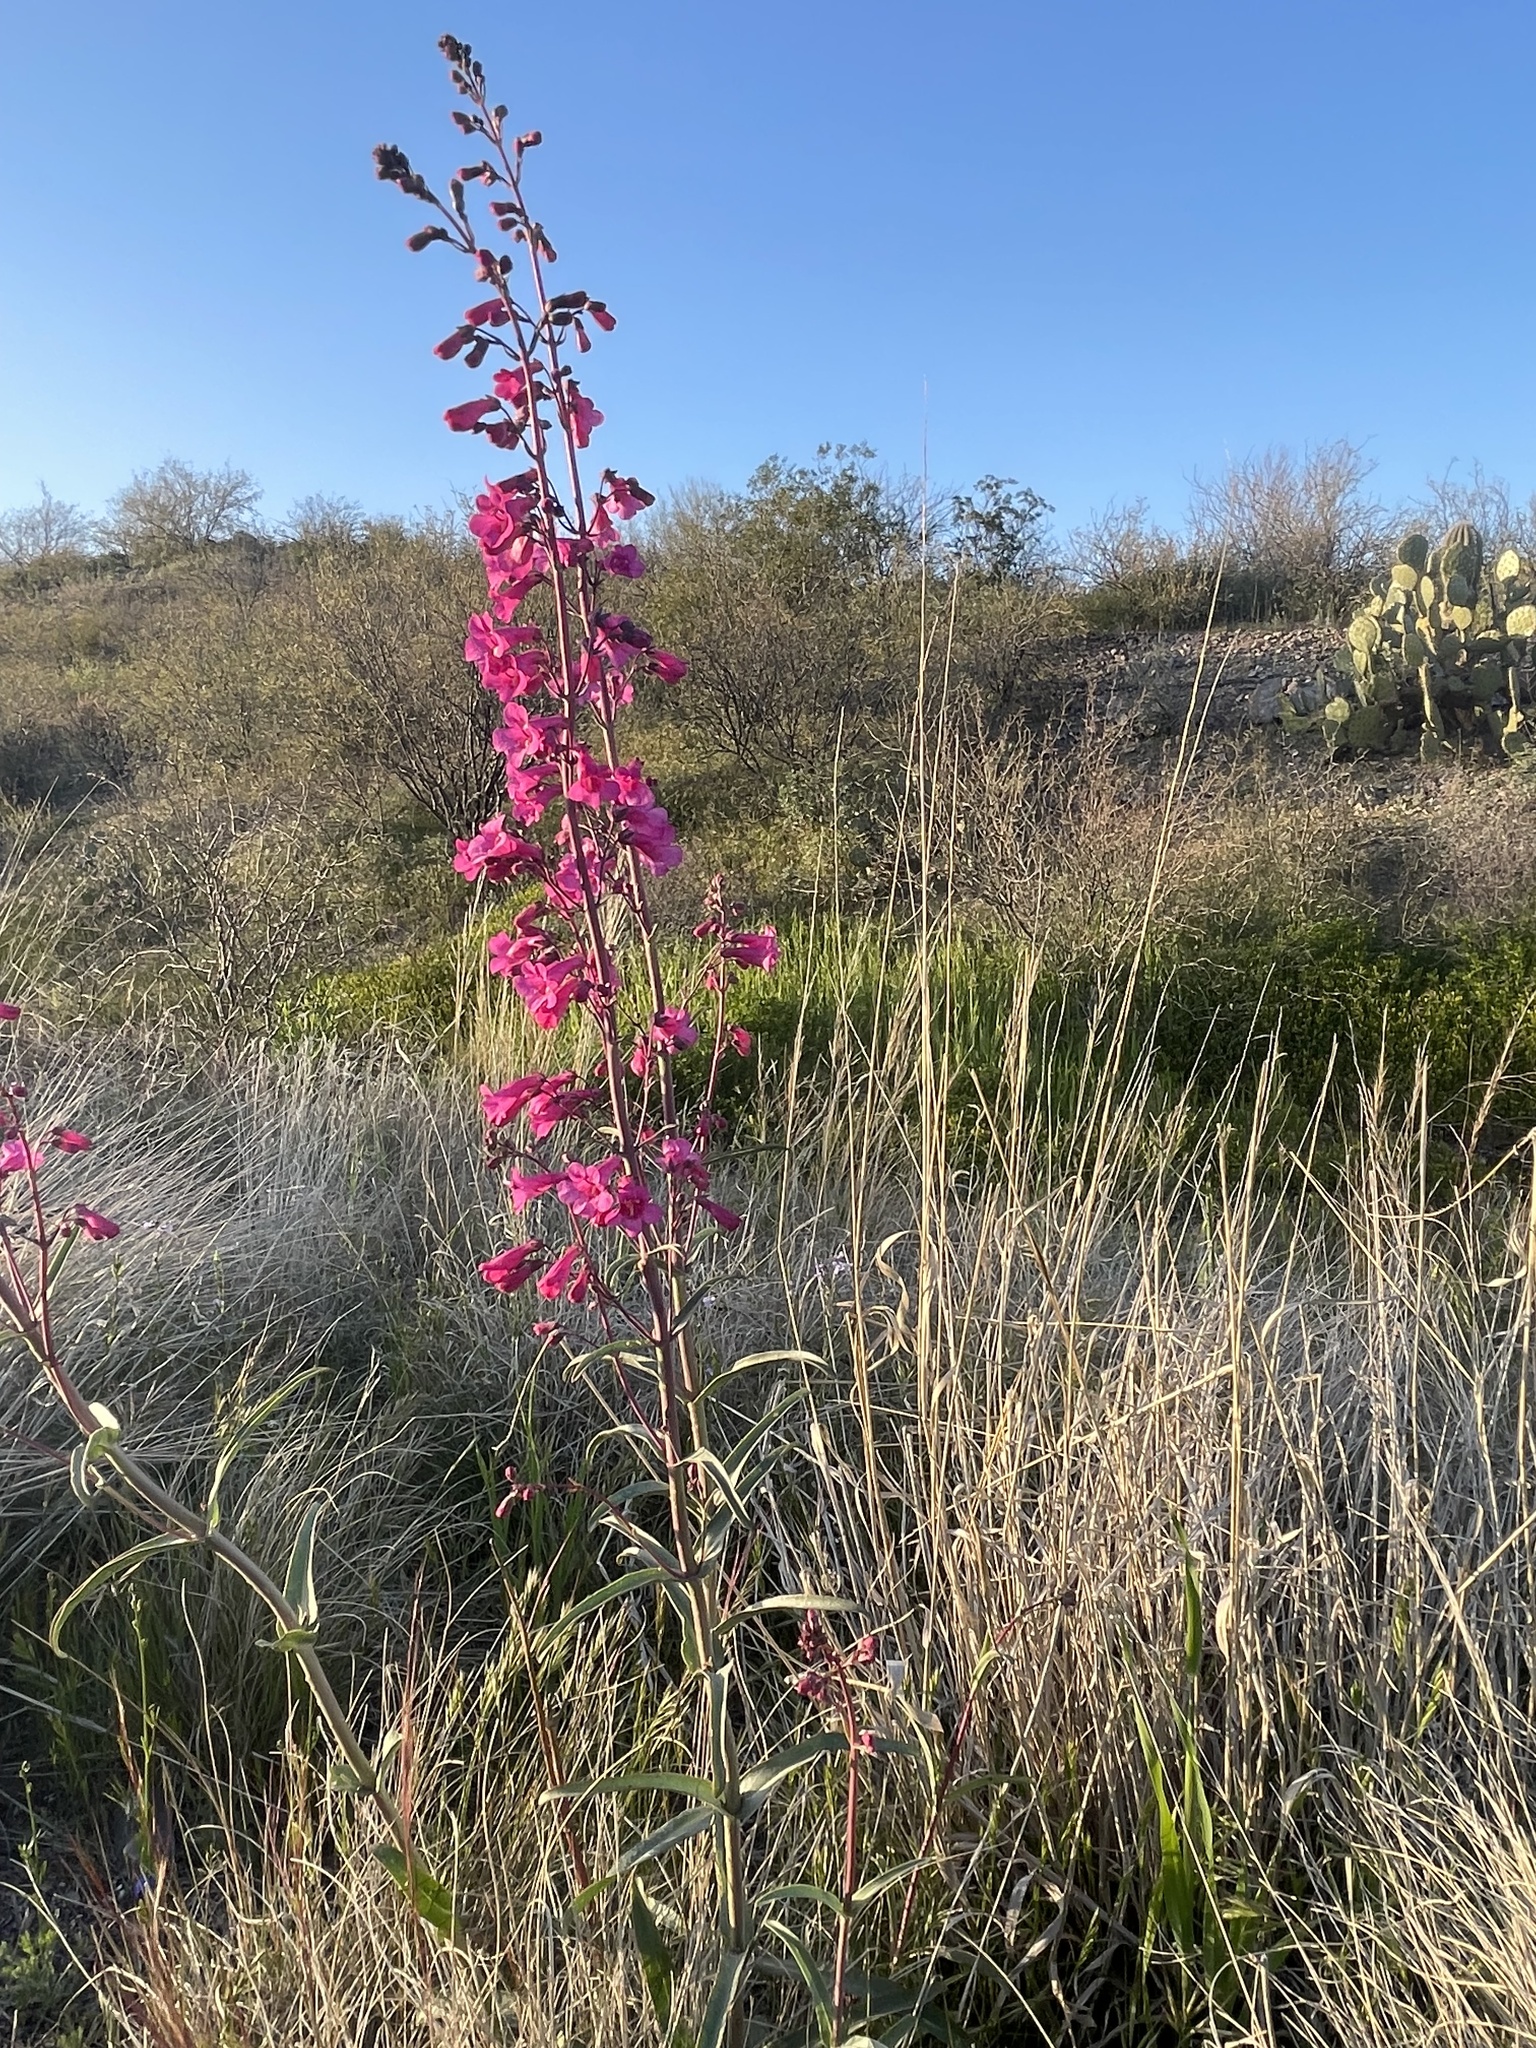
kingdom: Plantae
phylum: Tracheophyta
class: Magnoliopsida
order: Lamiales
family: Plantaginaceae
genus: Penstemon
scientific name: Penstemon parryi
